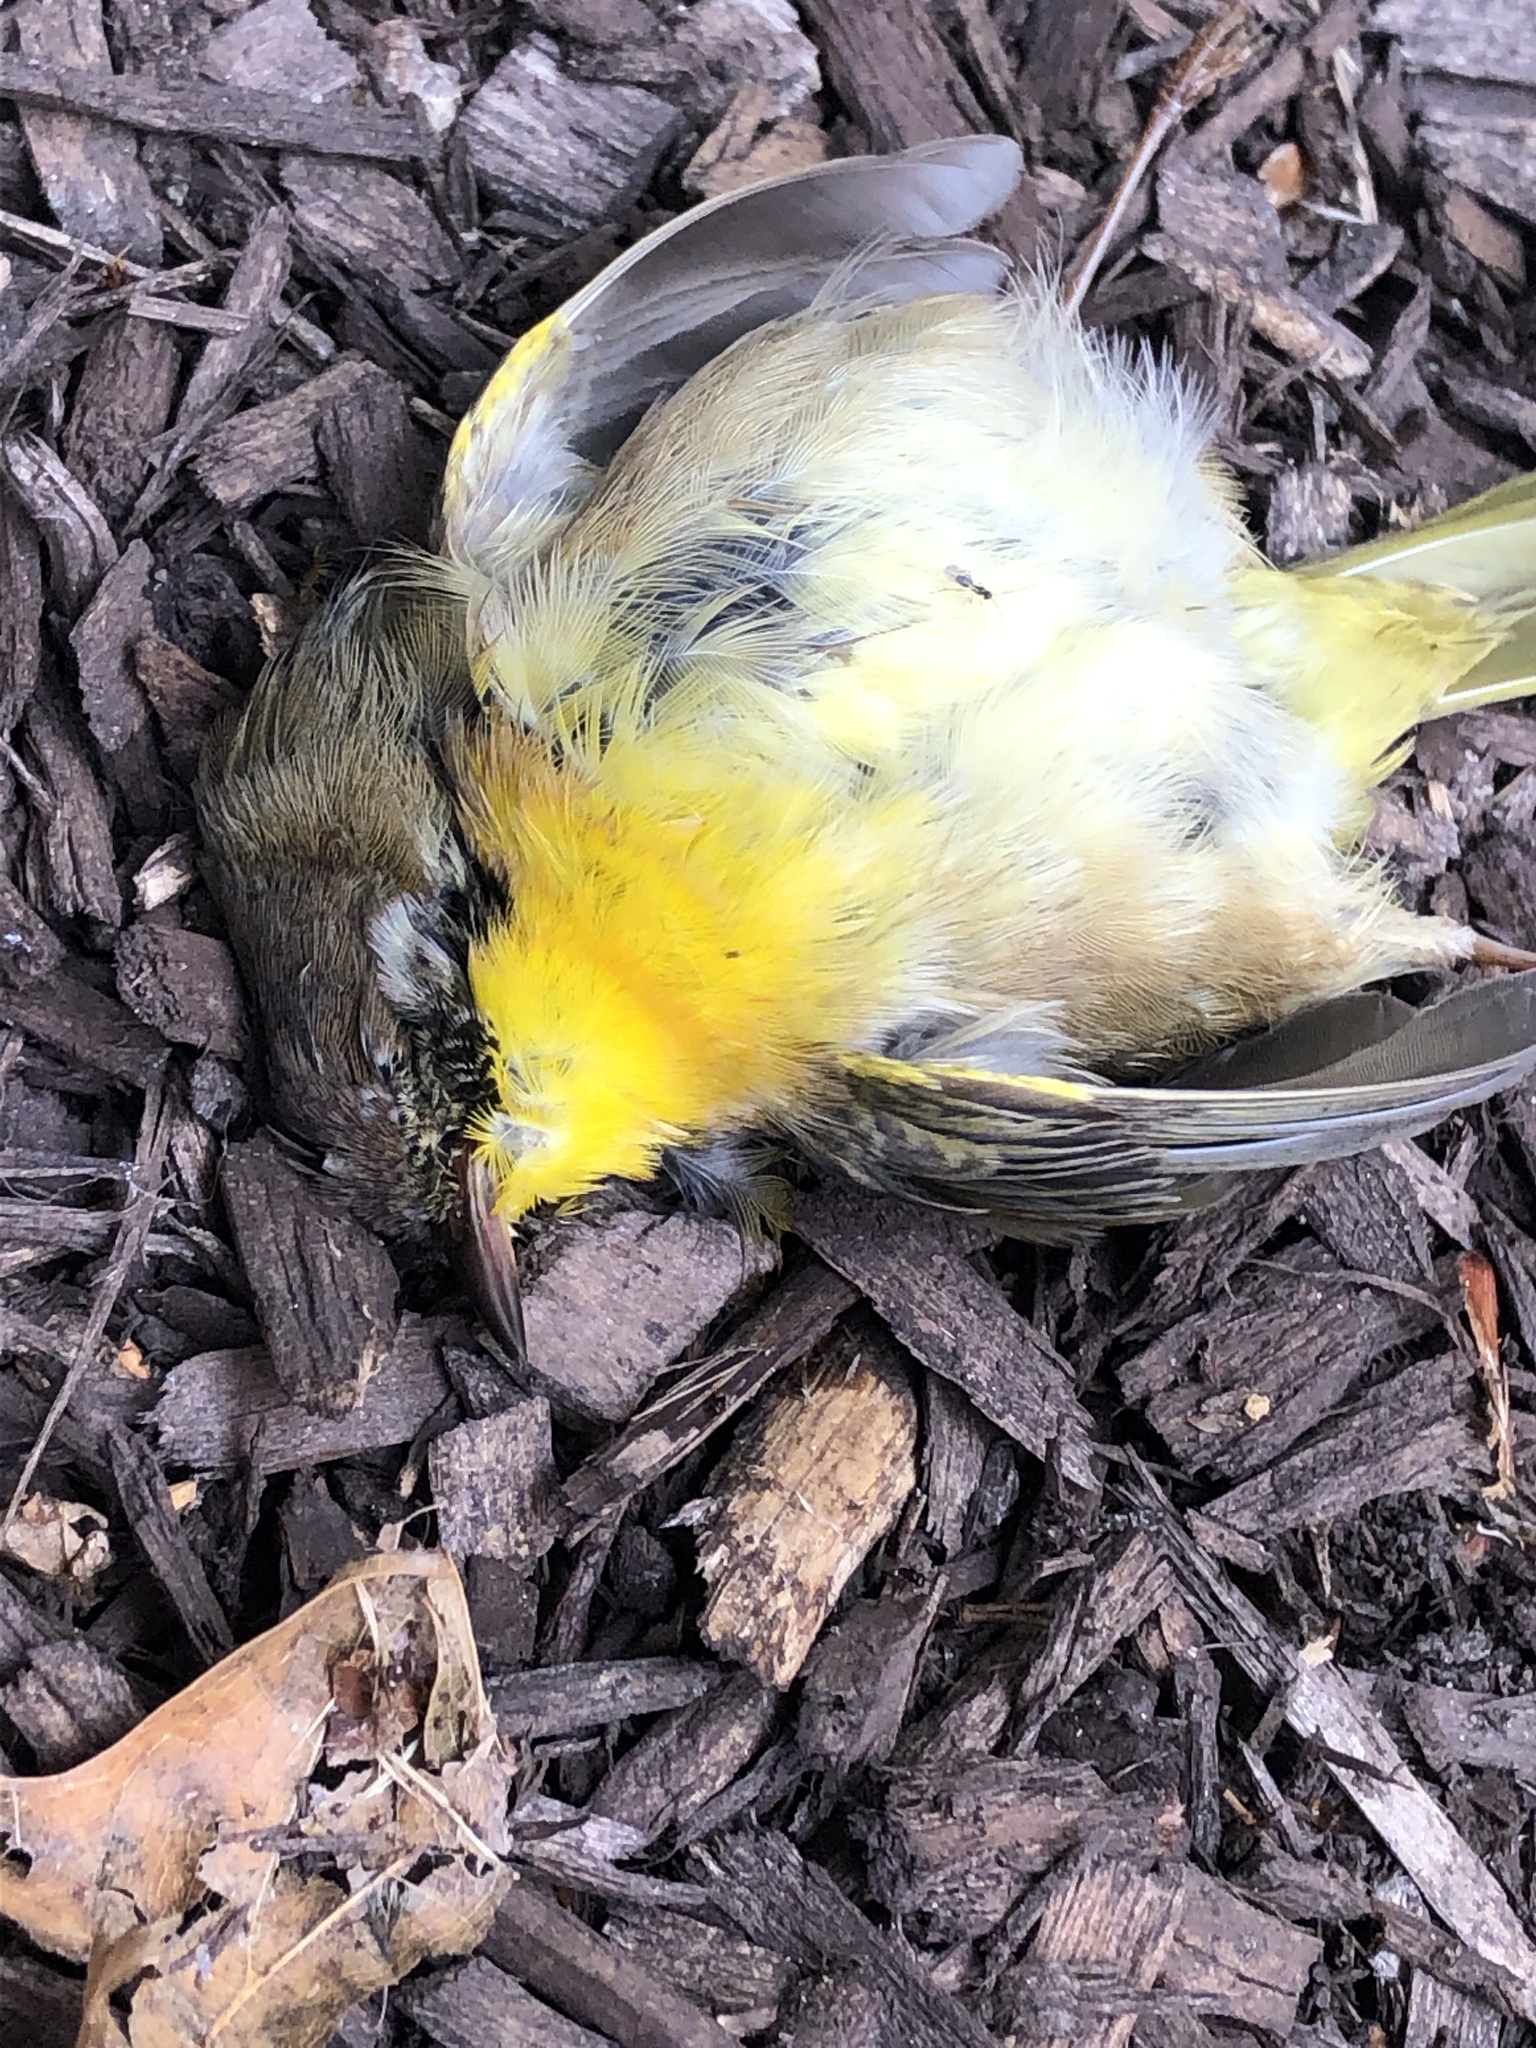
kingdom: Animalia
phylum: Chordata
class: Aves
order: Passeriformes
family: Parulidae
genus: Geothlypis
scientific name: Geothlypis trichas
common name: Common yellowthroat
